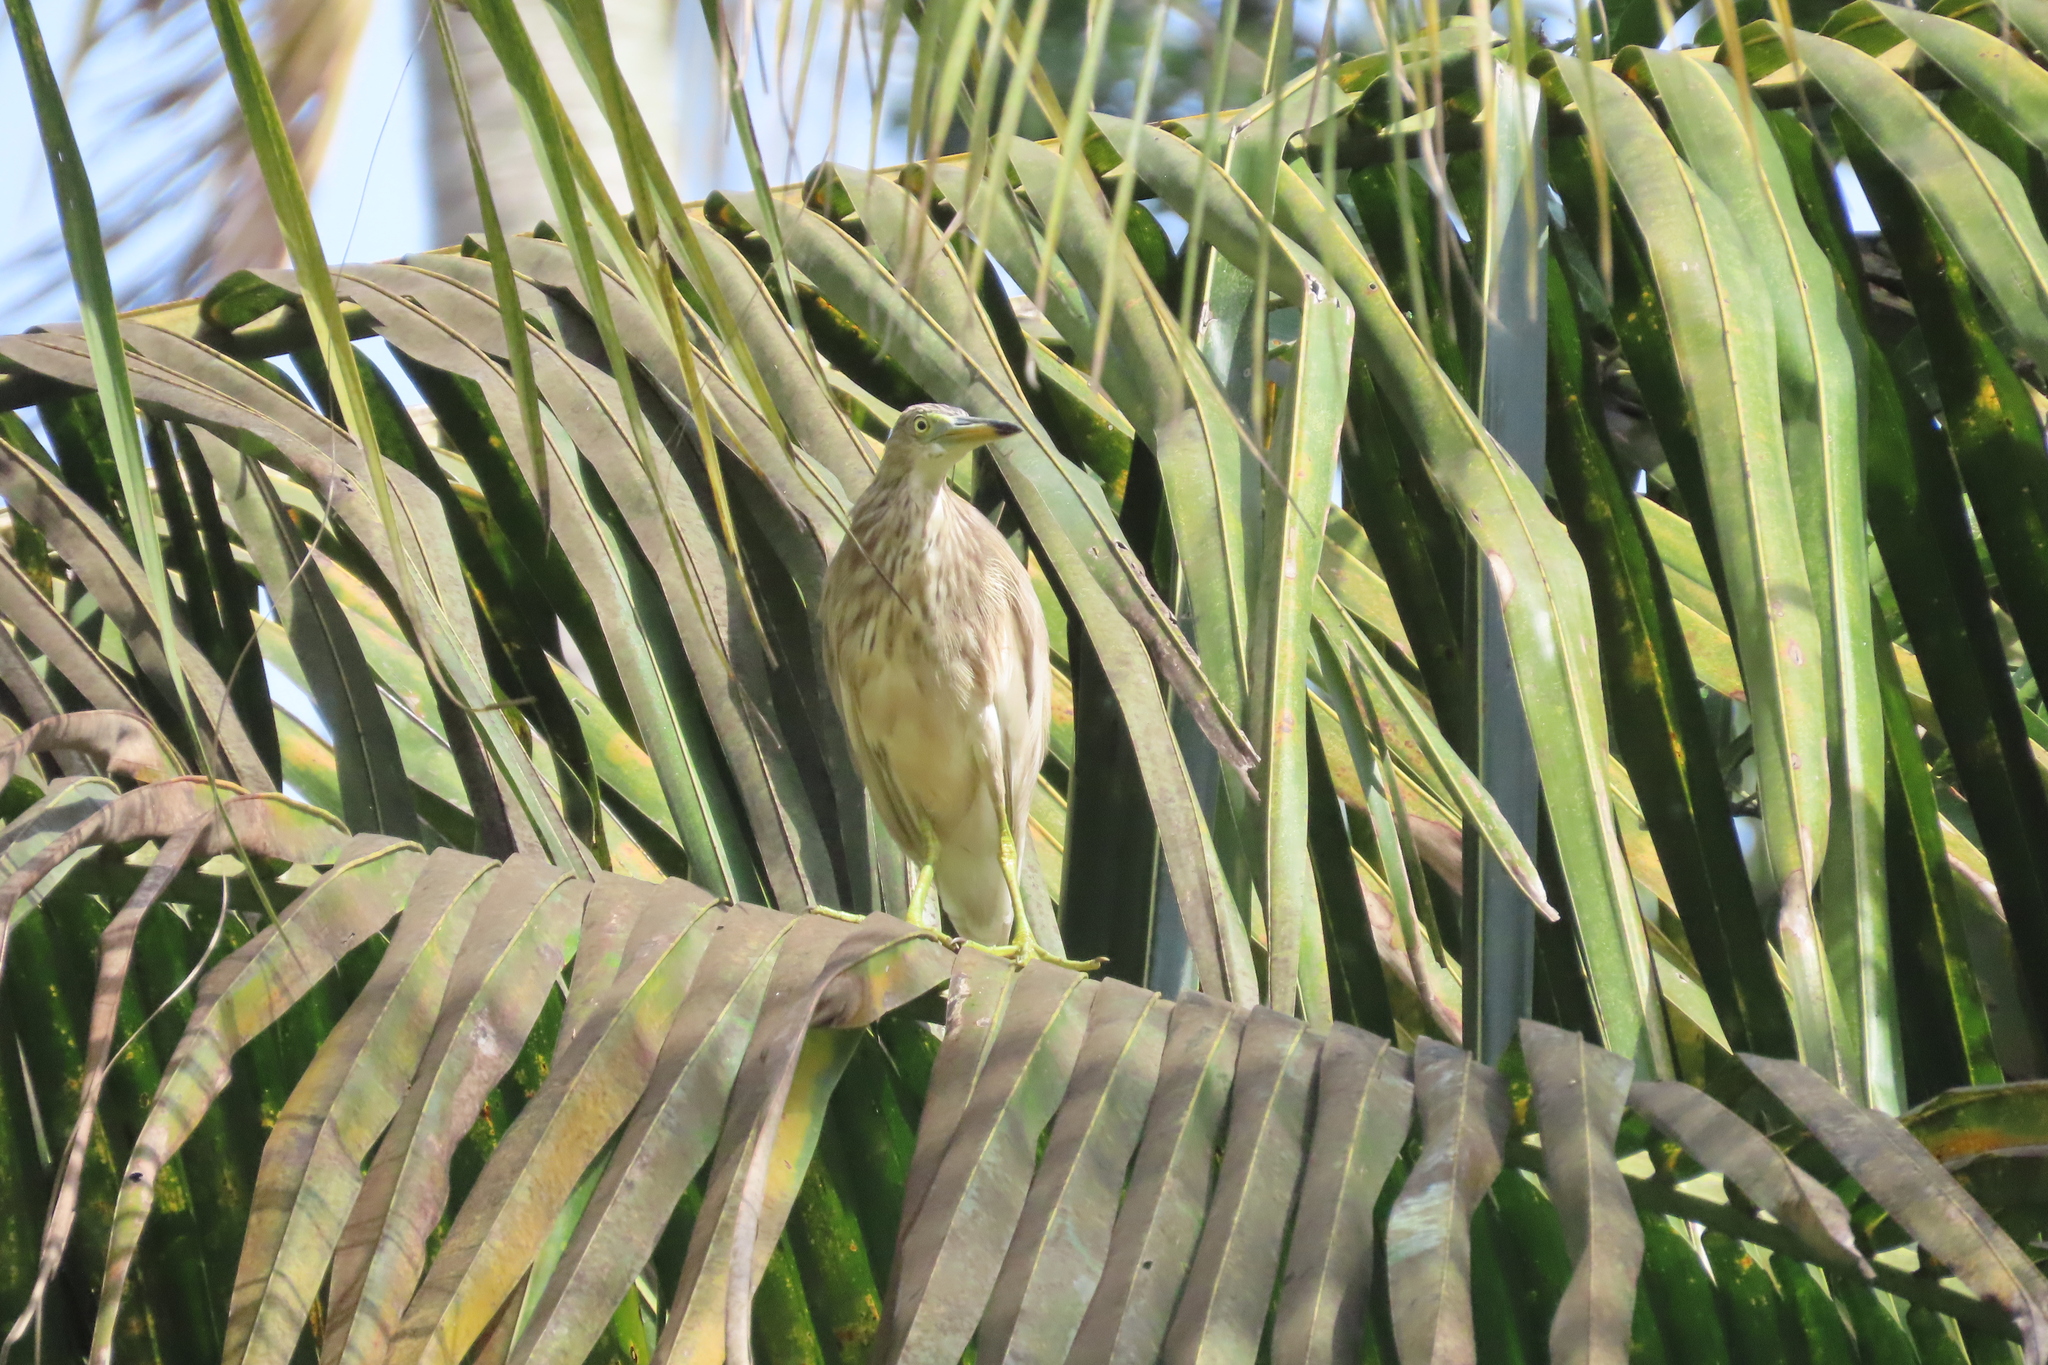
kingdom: Animalia
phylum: Chordata
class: Aves
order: Pelecaniformes
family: Ardeidae
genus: Ardeola
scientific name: Ardeola grayii
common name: Indian pond heron
